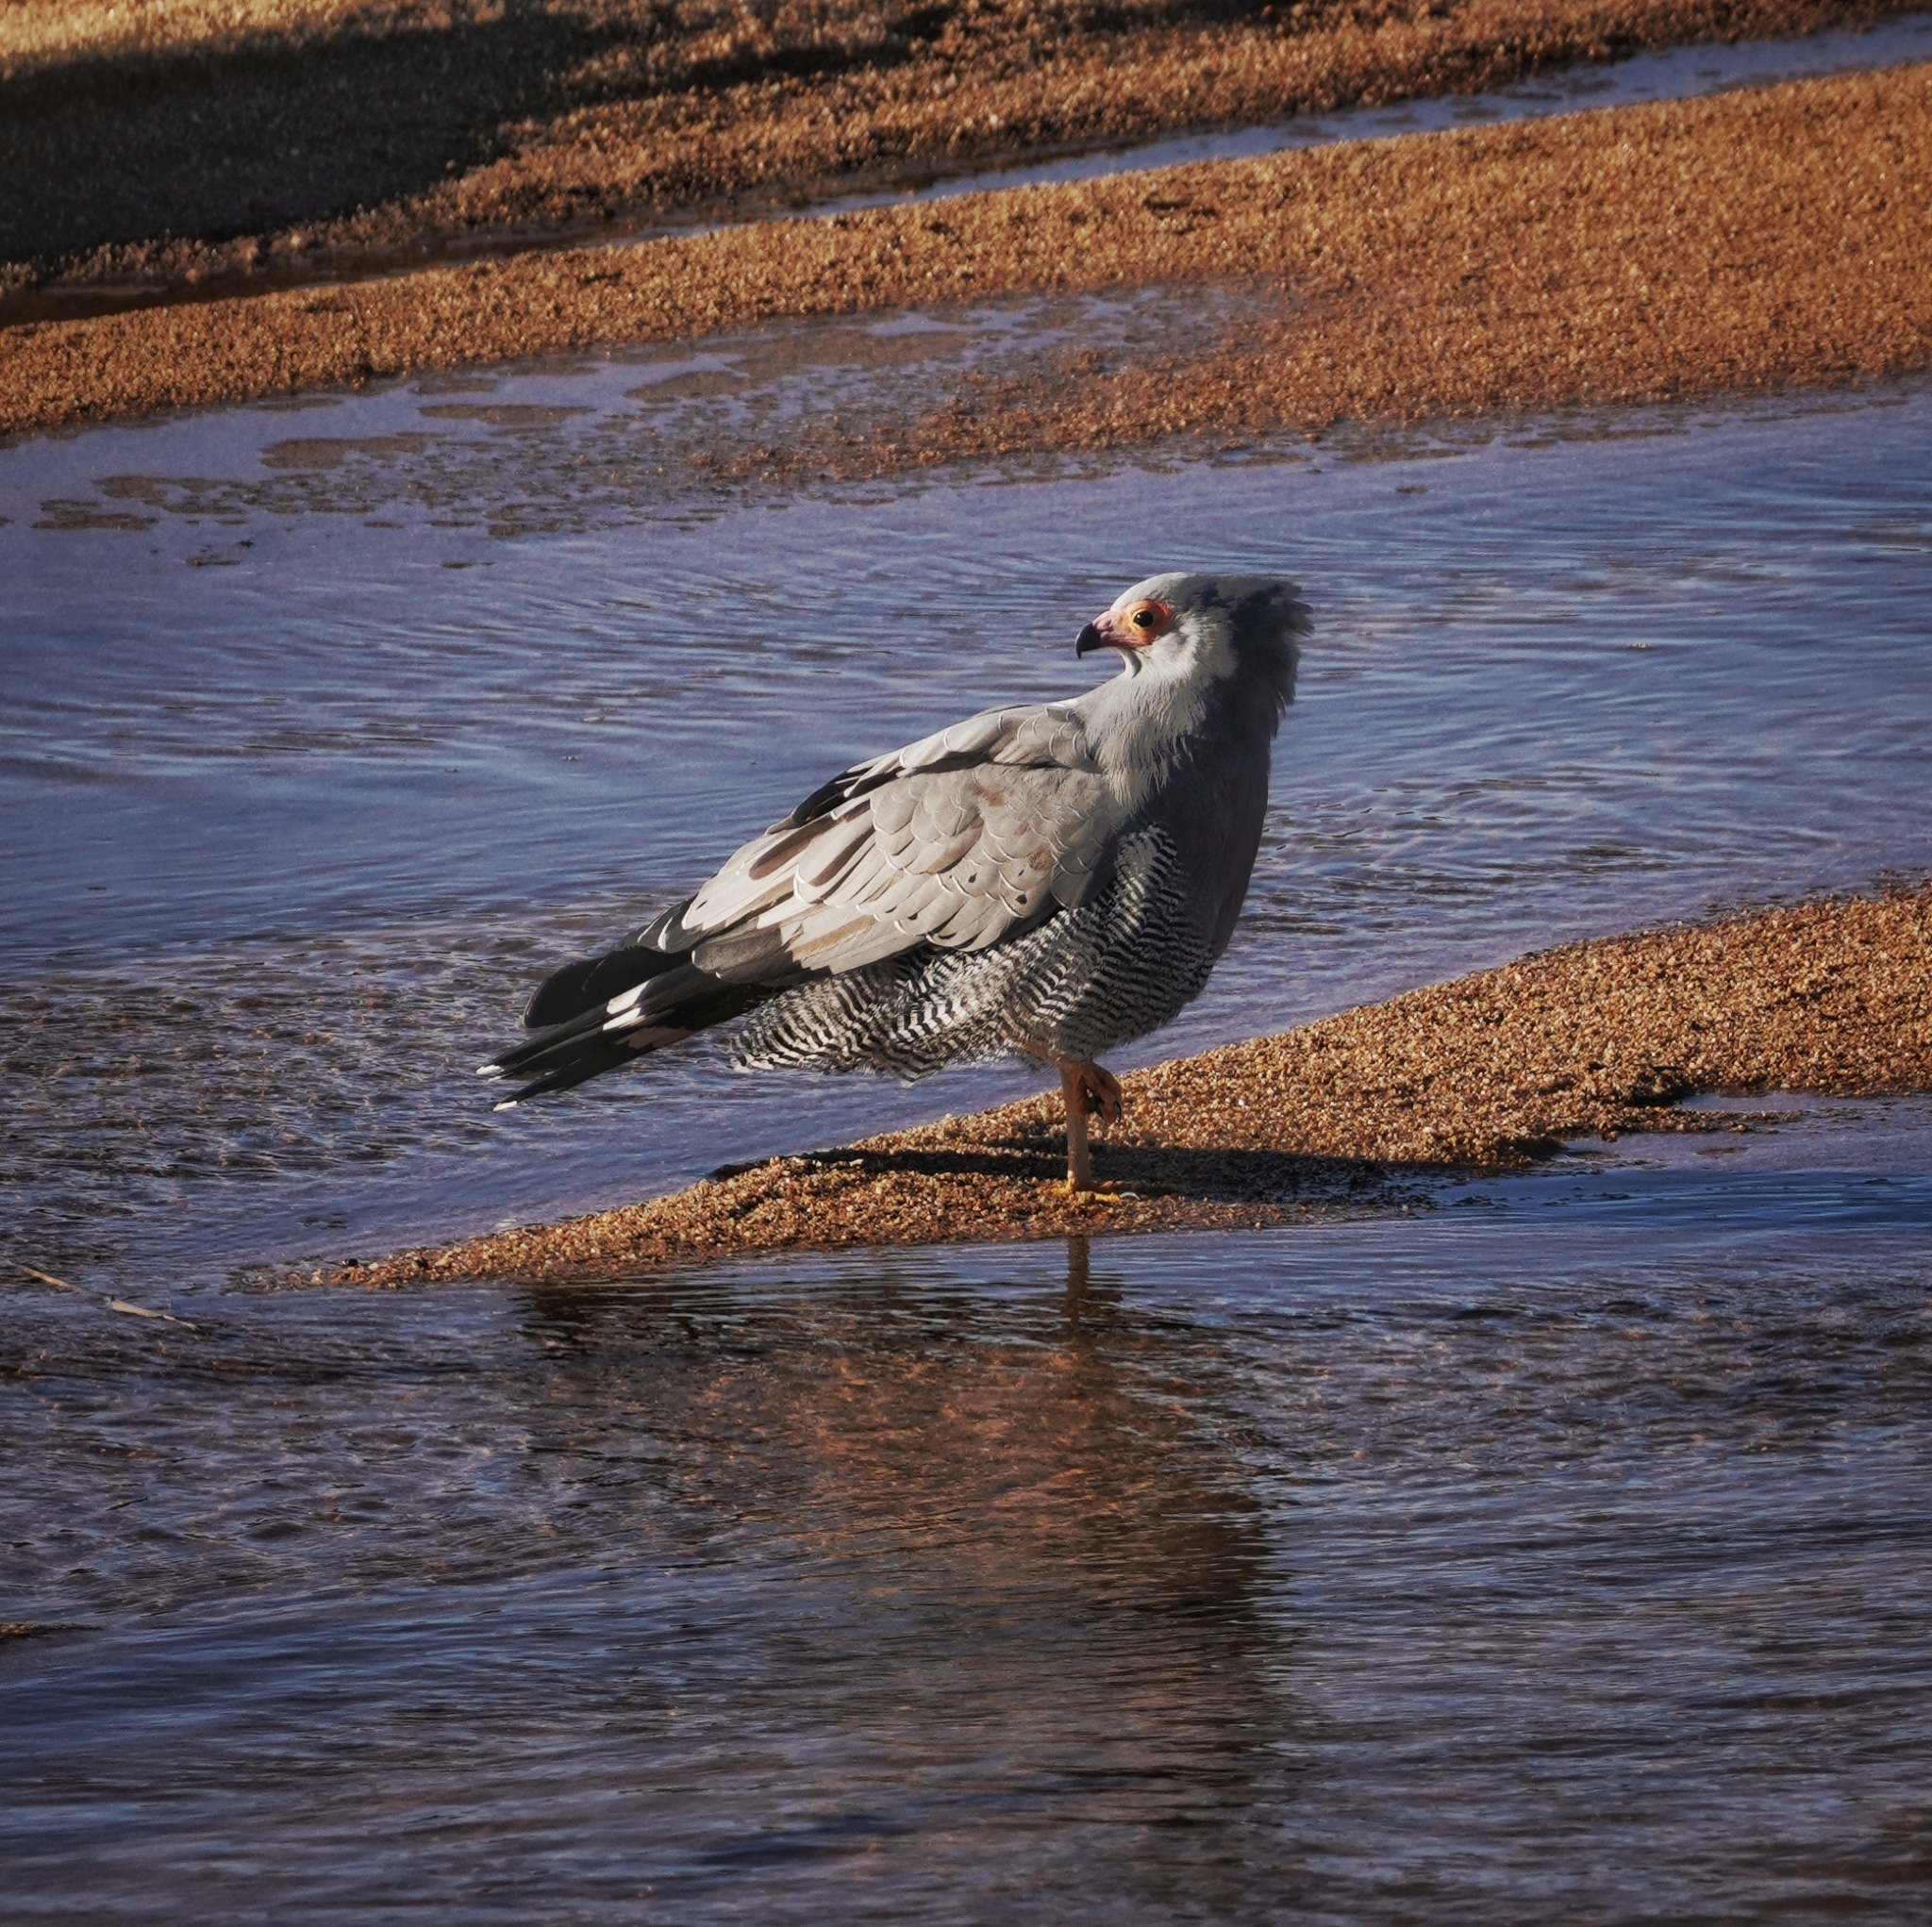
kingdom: Animalia
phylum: Chordata
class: Aves
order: Accipitriformes
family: Accipitridae
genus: Polyboroides
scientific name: Polyboroides typus
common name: African harrier-hawk
